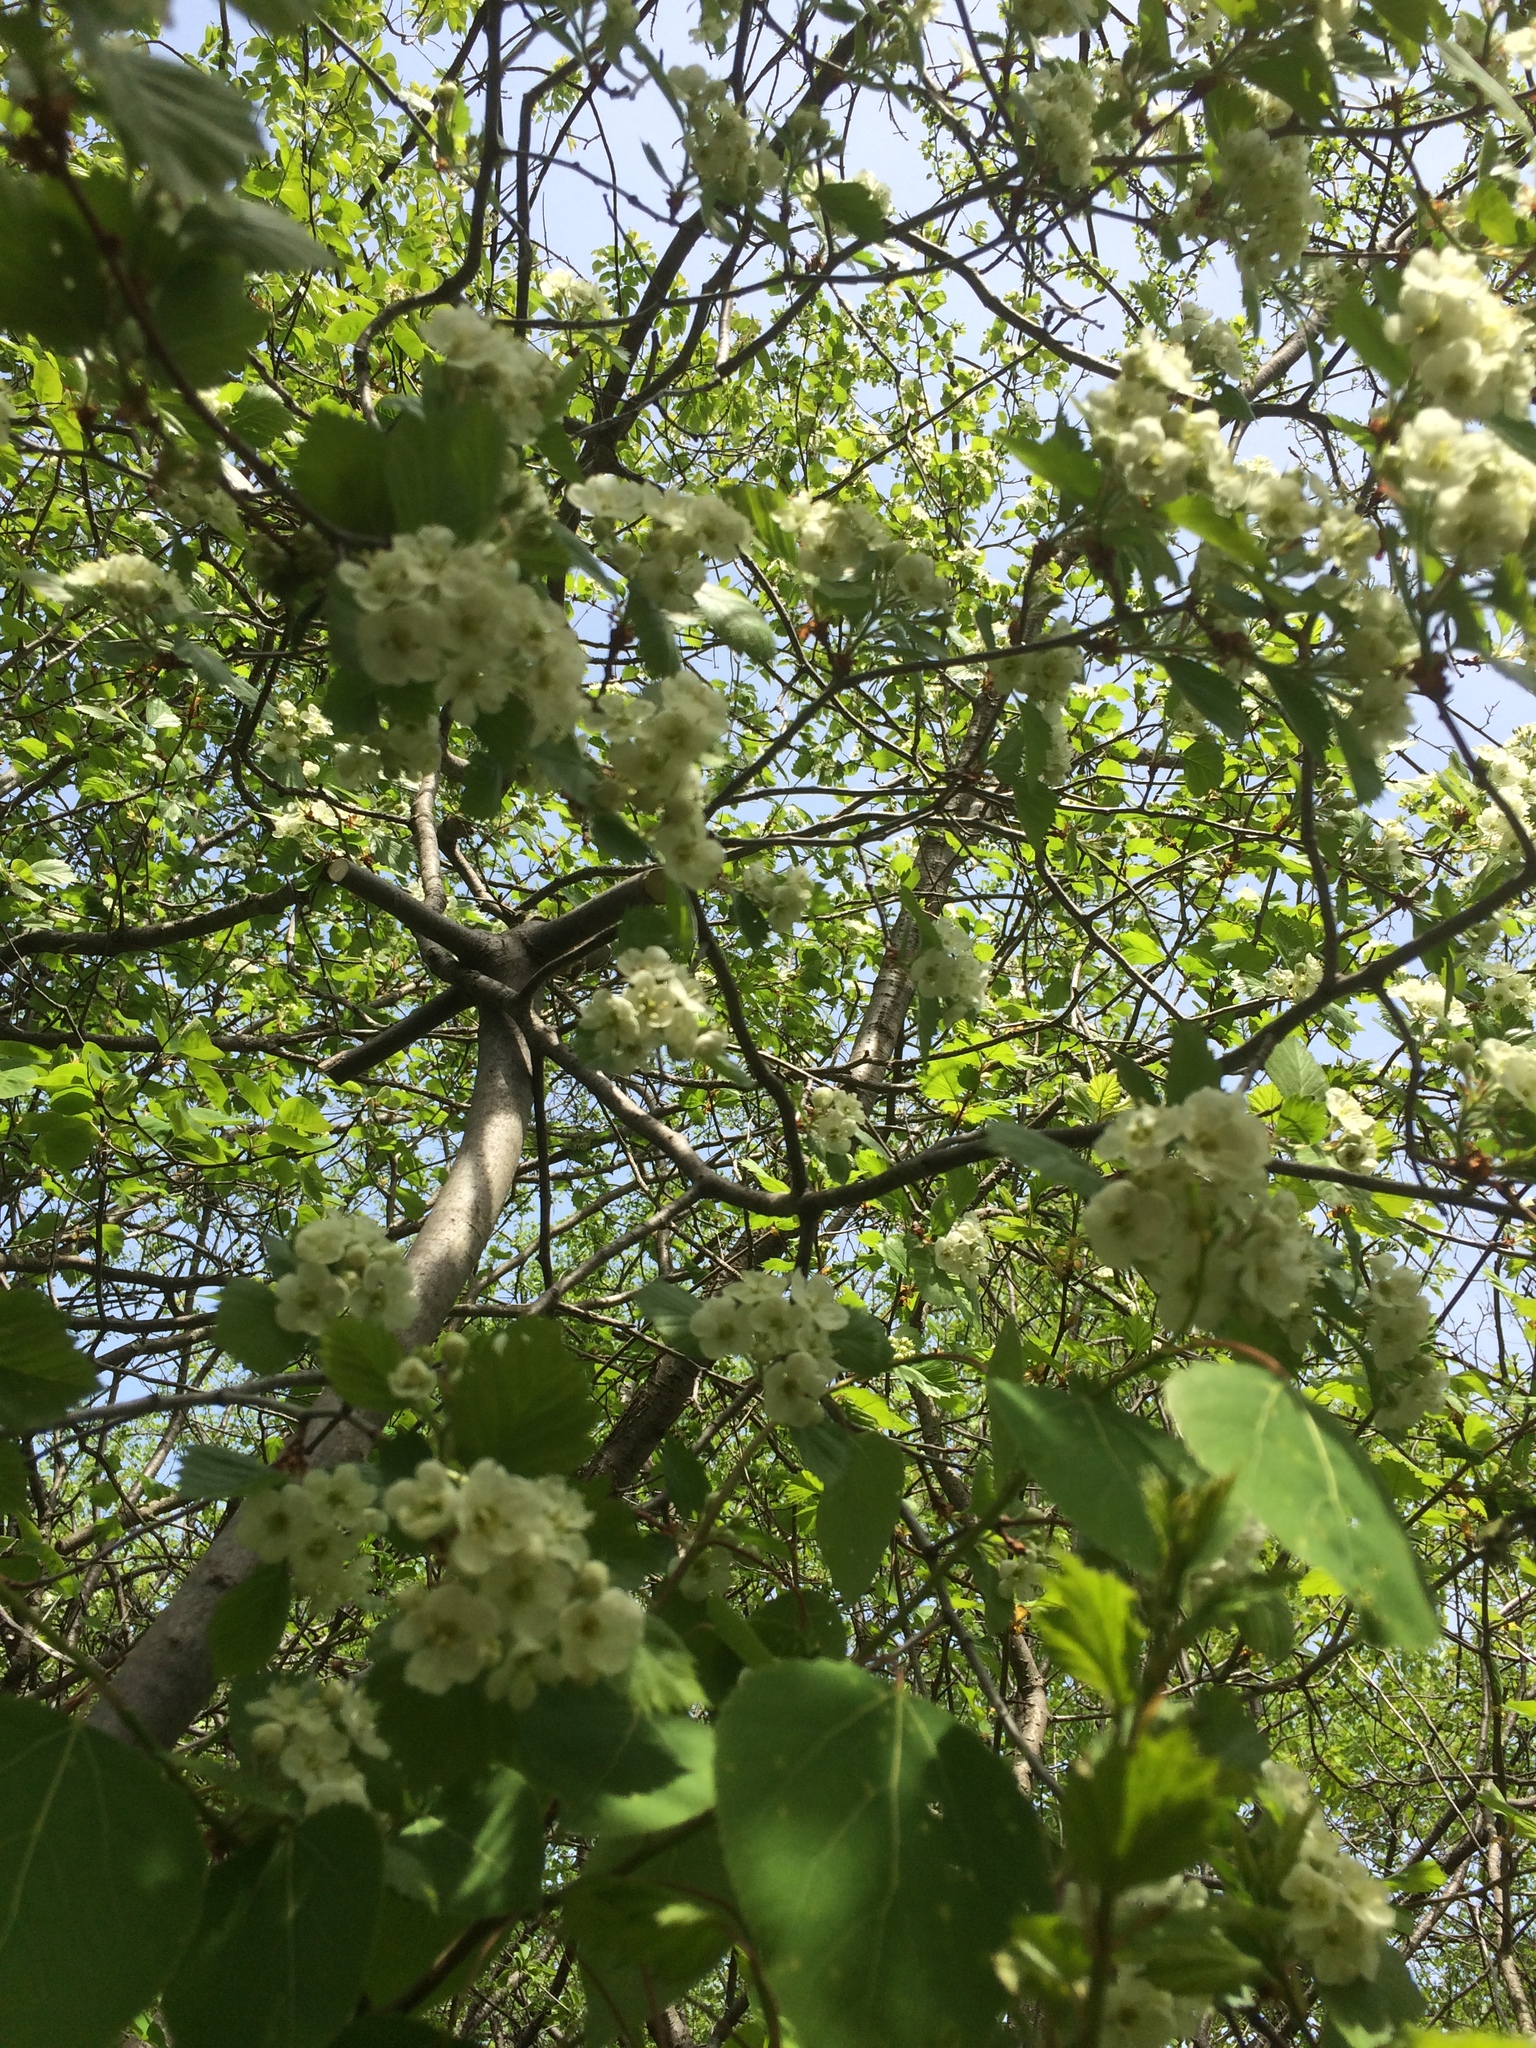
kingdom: Plantae
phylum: Tracheophyta
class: Magnoliopsida
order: Rosales
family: Rosaceae
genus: Crataegus
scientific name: Crataegus chrysocarpa
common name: Fire-berry hawthorn
